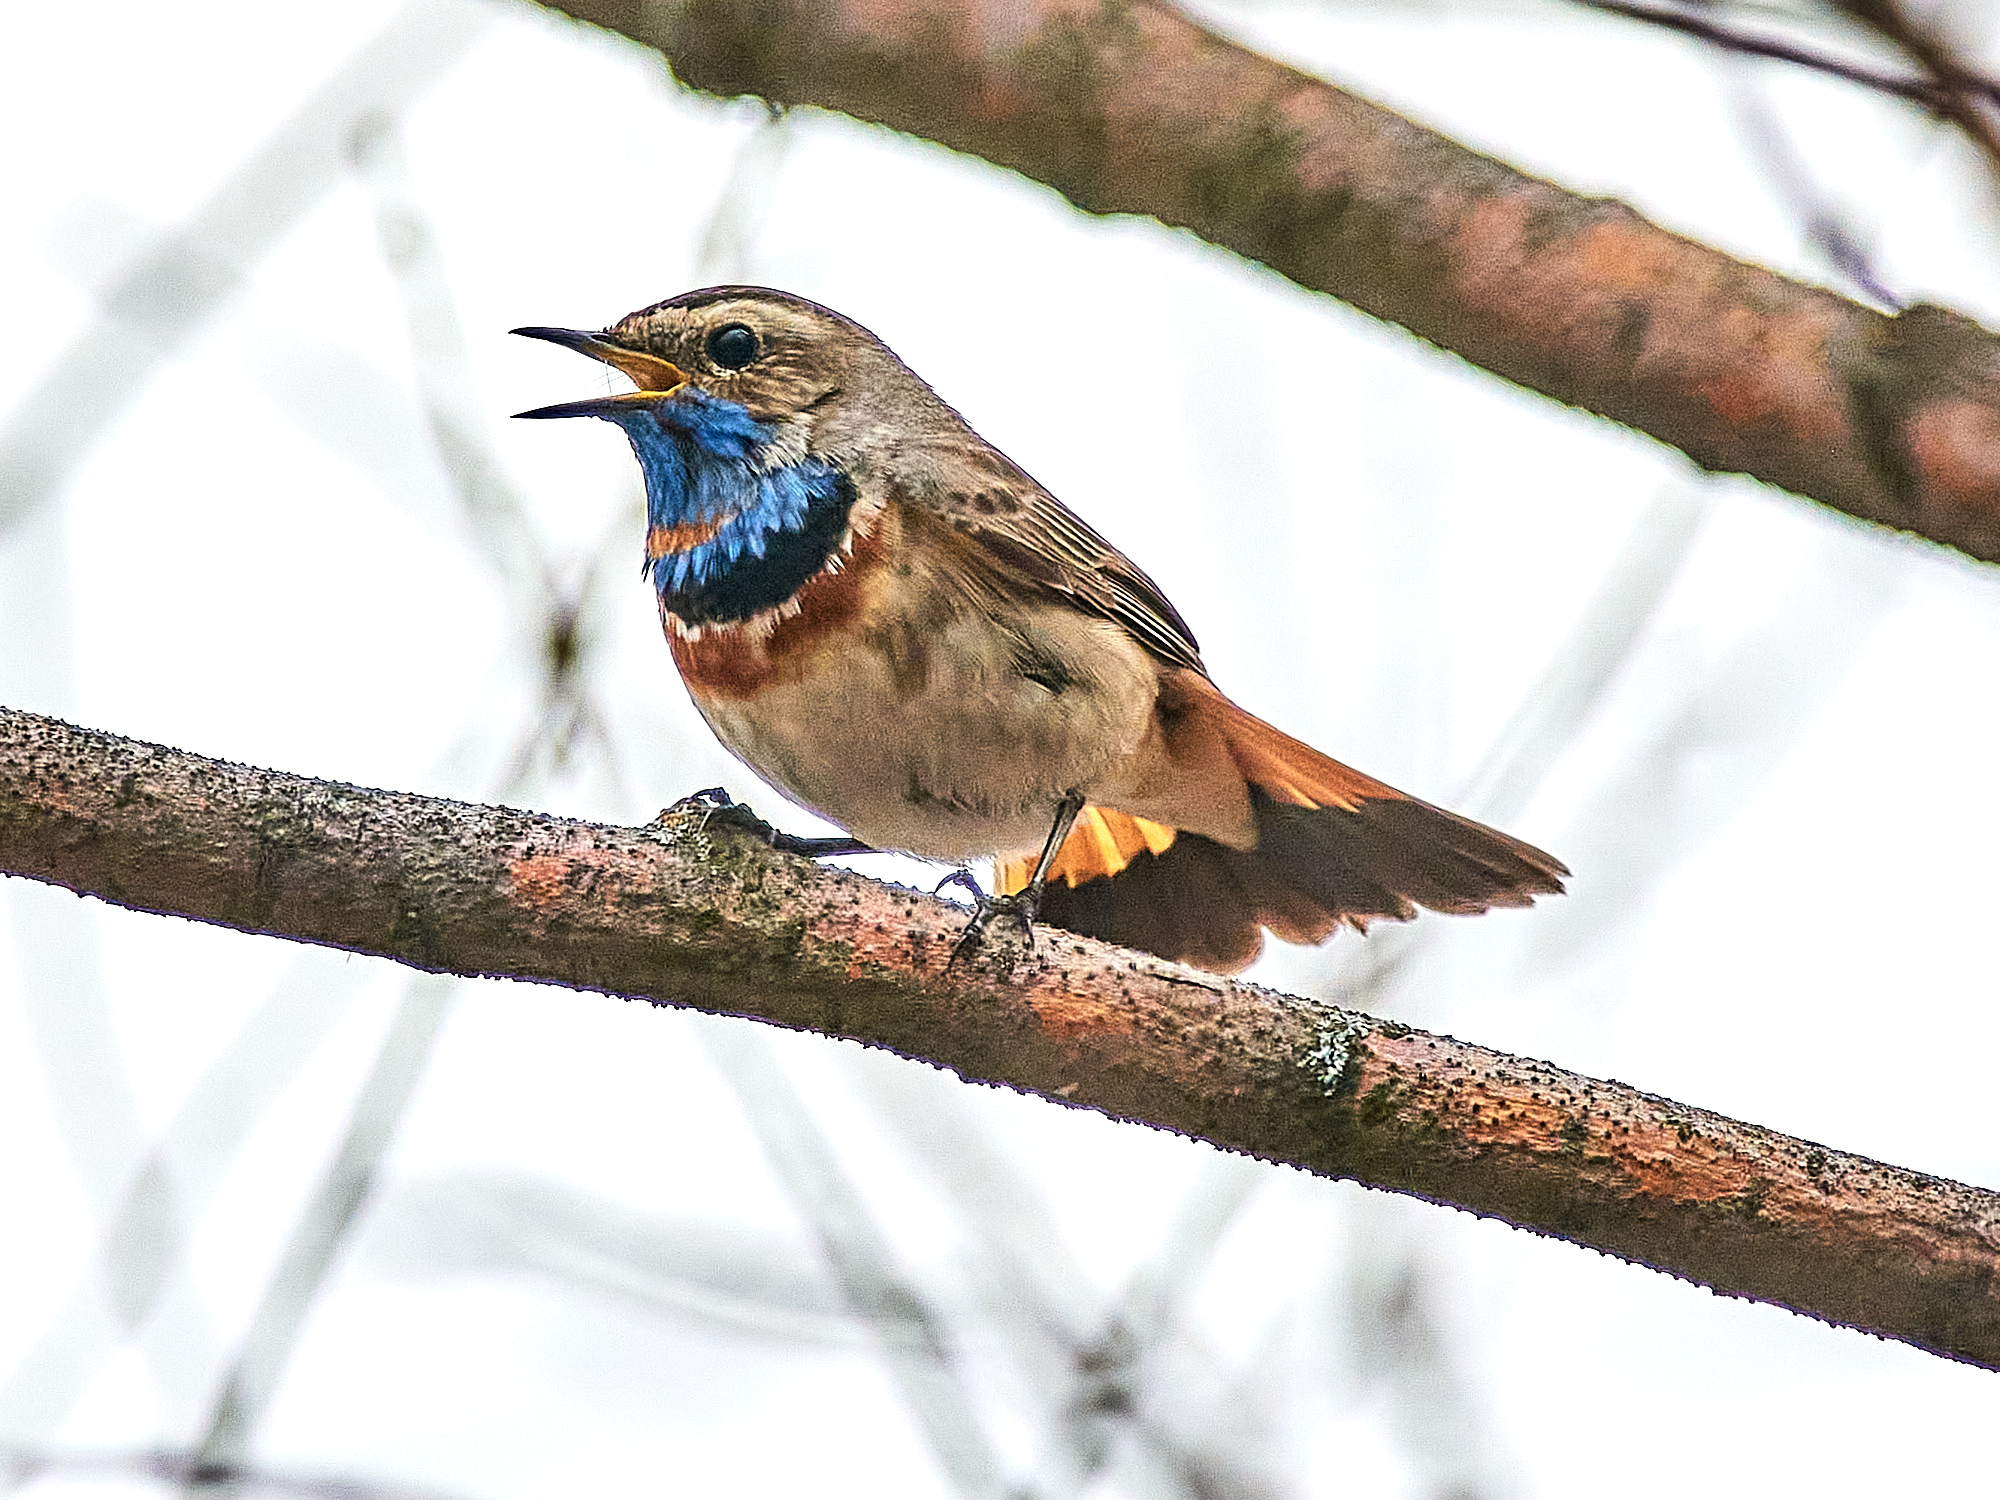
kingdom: Animalia
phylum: Chordata
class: Aves
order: Passeriformes
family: Muscicapidae
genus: Luscinia
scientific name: Luscinia svecica
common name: Bluethroat
